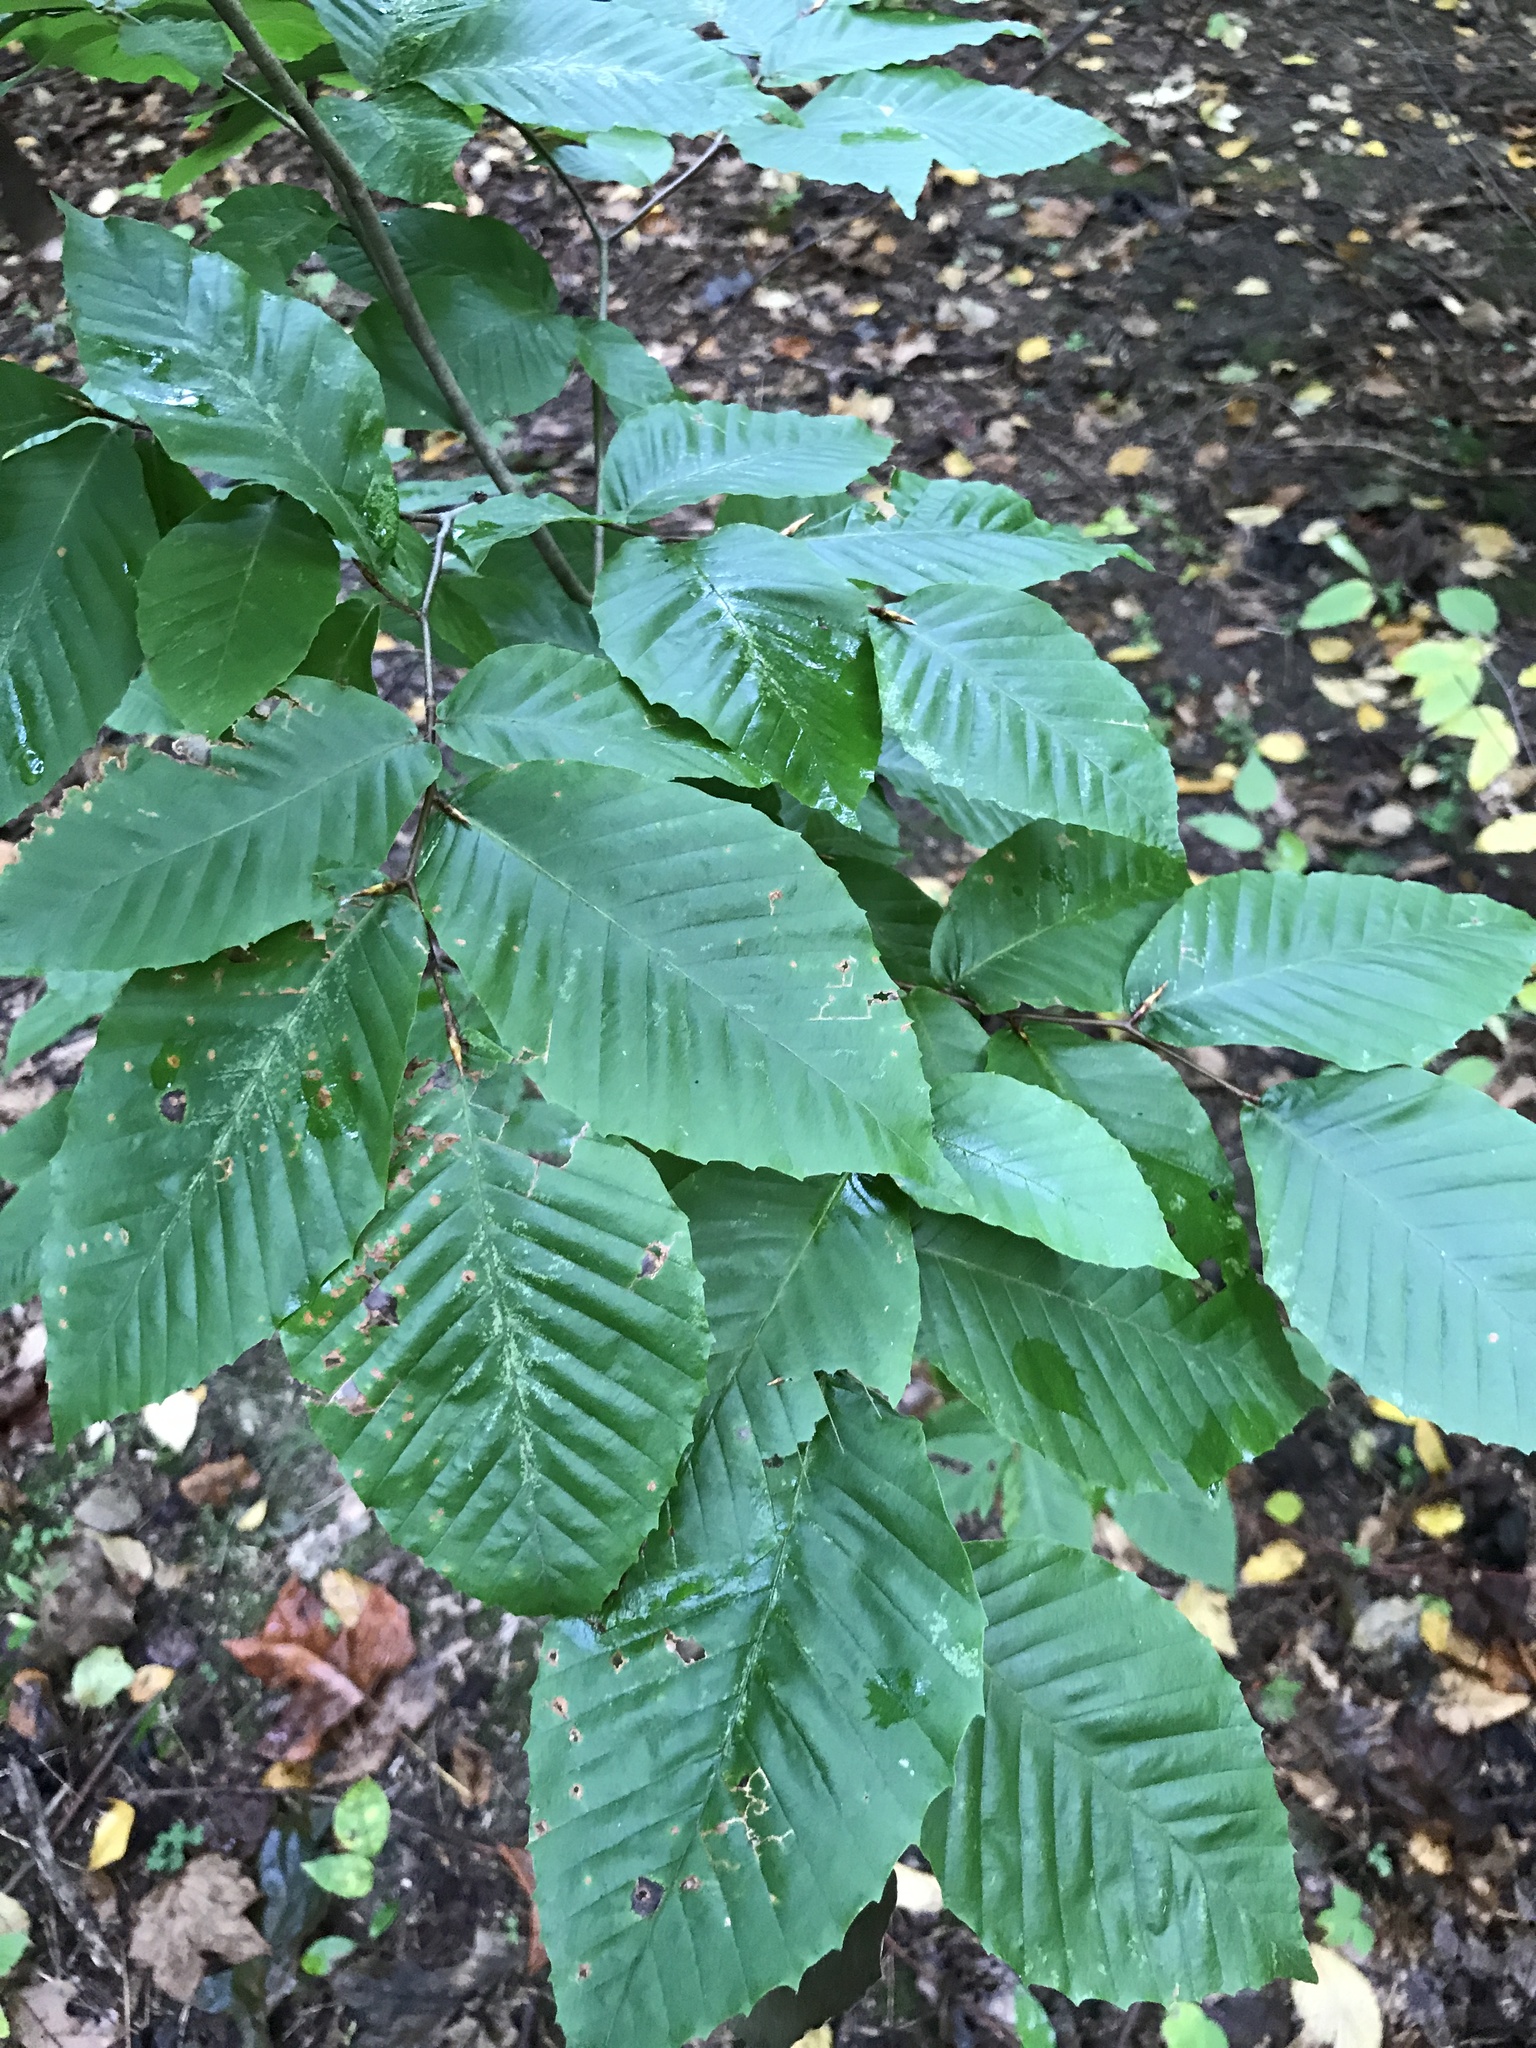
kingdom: Plantae
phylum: Tracheophyta
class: Magnoliopsida
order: Fagales
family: Fagaceae
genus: Fagus
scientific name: Fagus grandifolia
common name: American beech
